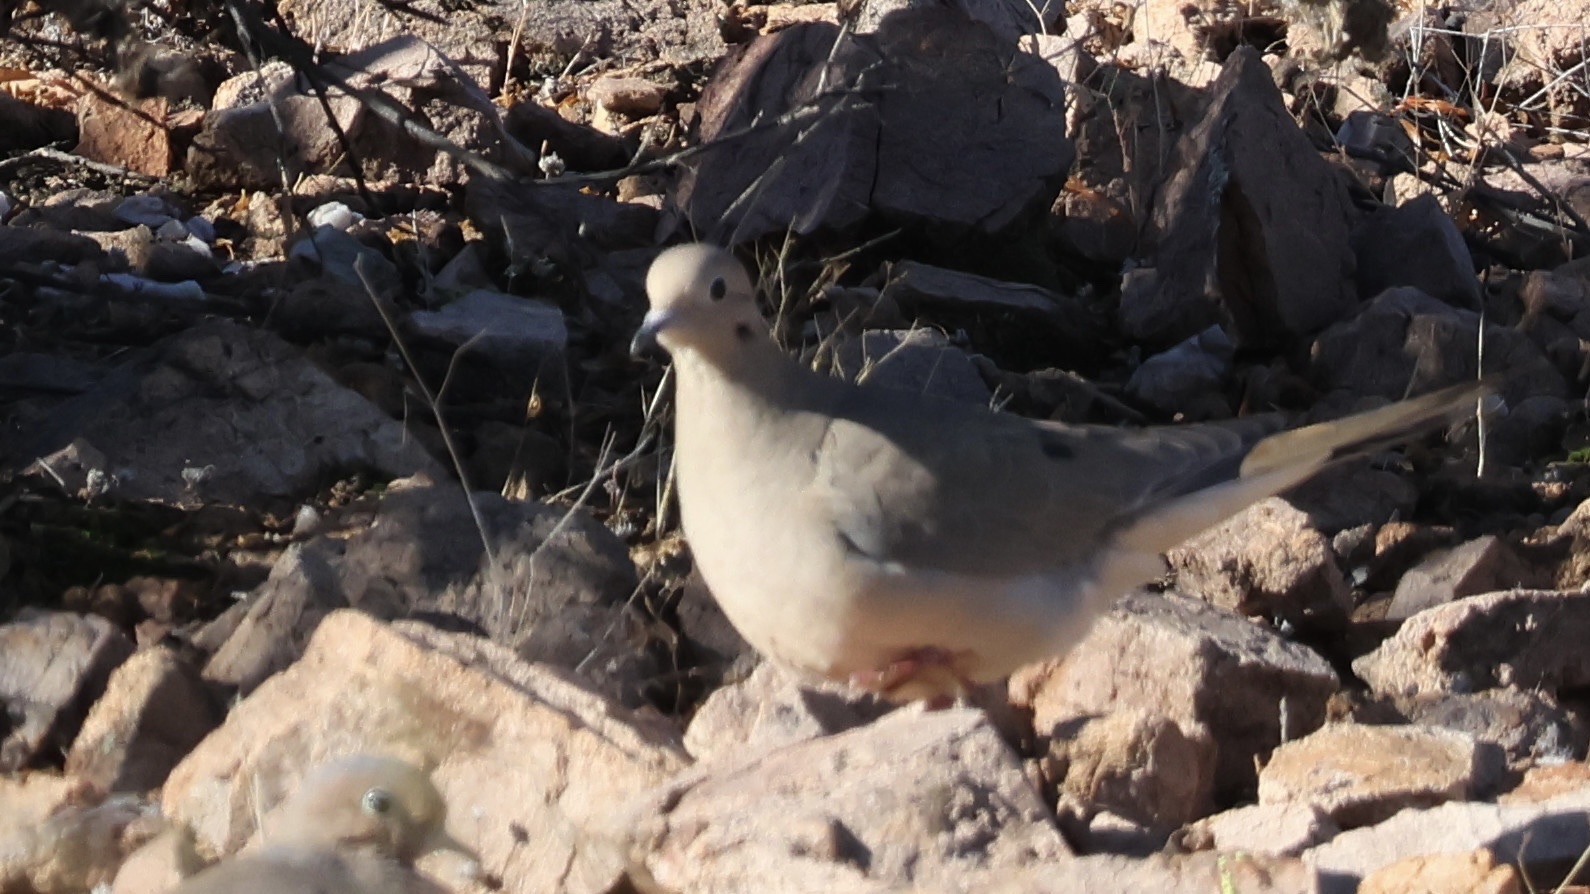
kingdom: Animalia
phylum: Chordata
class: Aves
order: Columbiformes
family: Columbidae
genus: Zenaida
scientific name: Zenaida macroura
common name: Mourning dove
